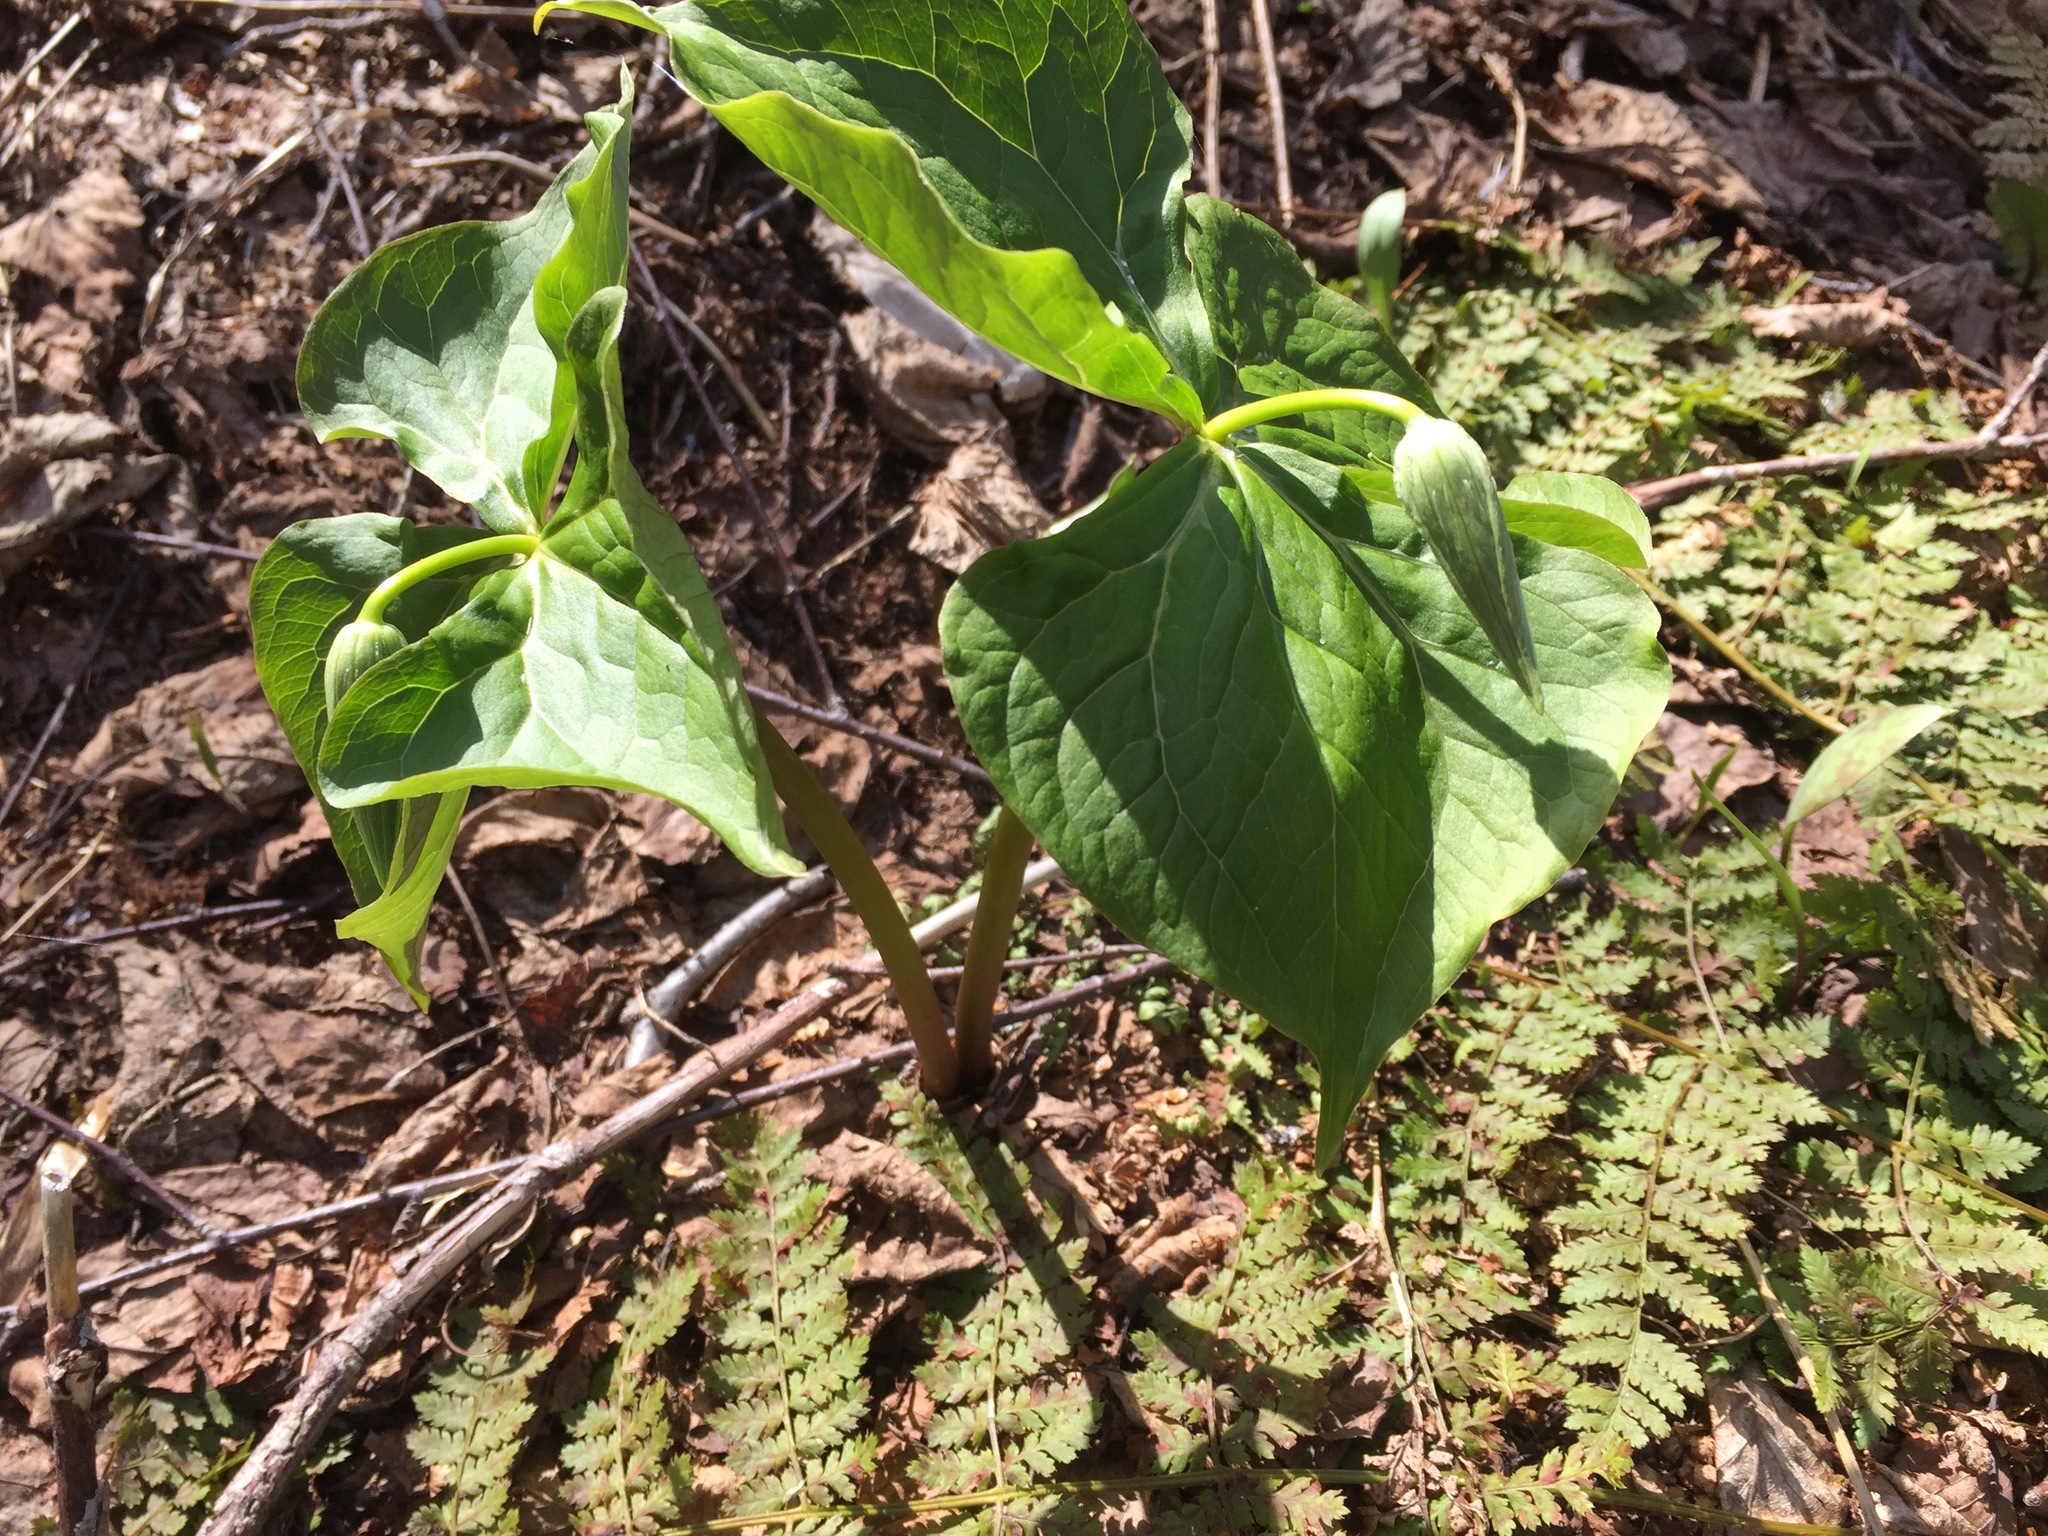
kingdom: Plantae
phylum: Tracheophyta
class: Liliopsida
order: Liliales
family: Melanthiaceae
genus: Trillium
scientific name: Trillium erectum
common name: Purple trillium
